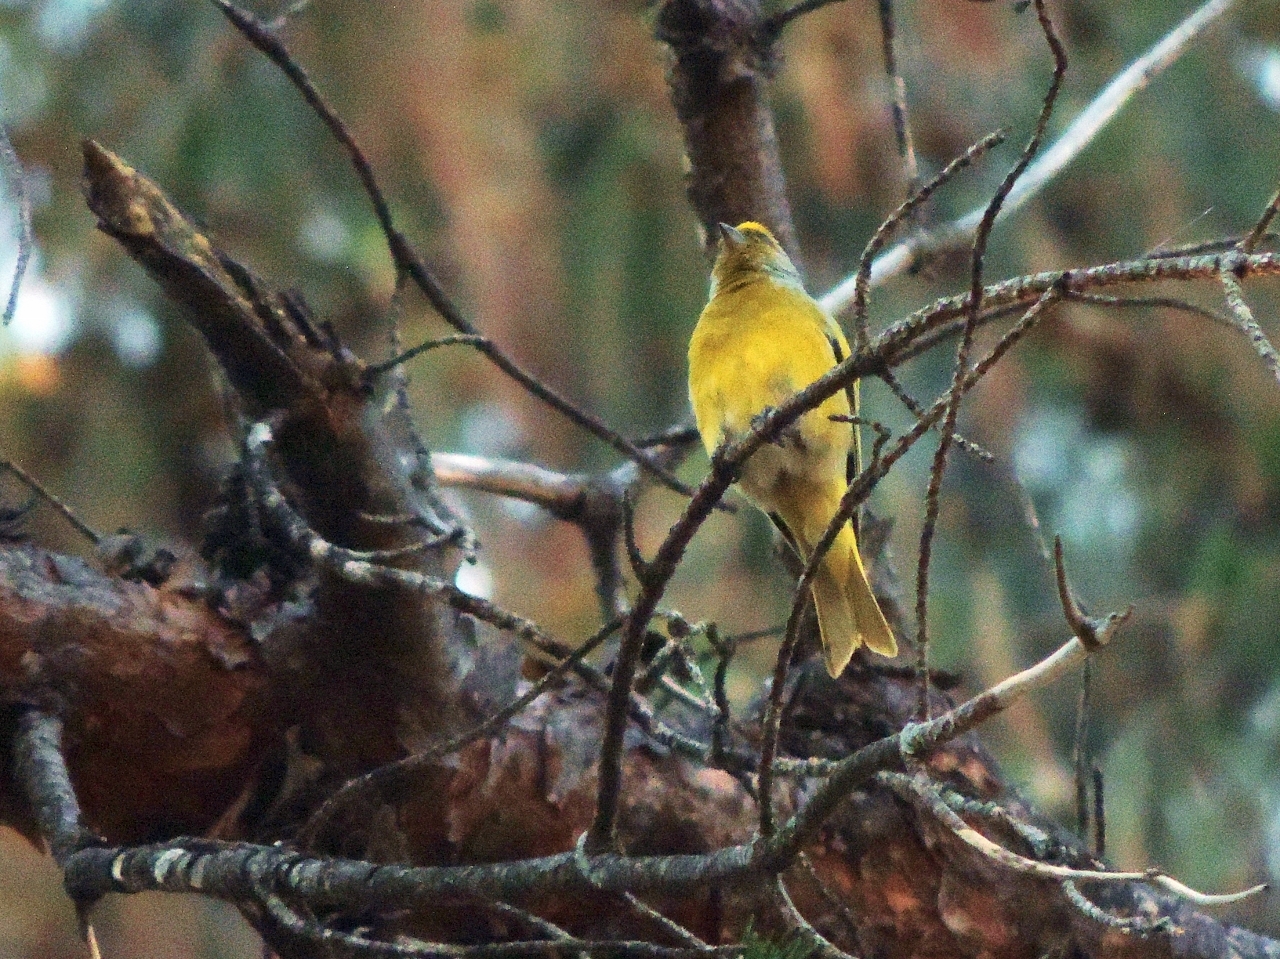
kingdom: Animalia
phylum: Chordata
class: Aves
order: Passeriformes
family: Fringillidae
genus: Serinus
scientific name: Serinus canicollis
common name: Cape canary
